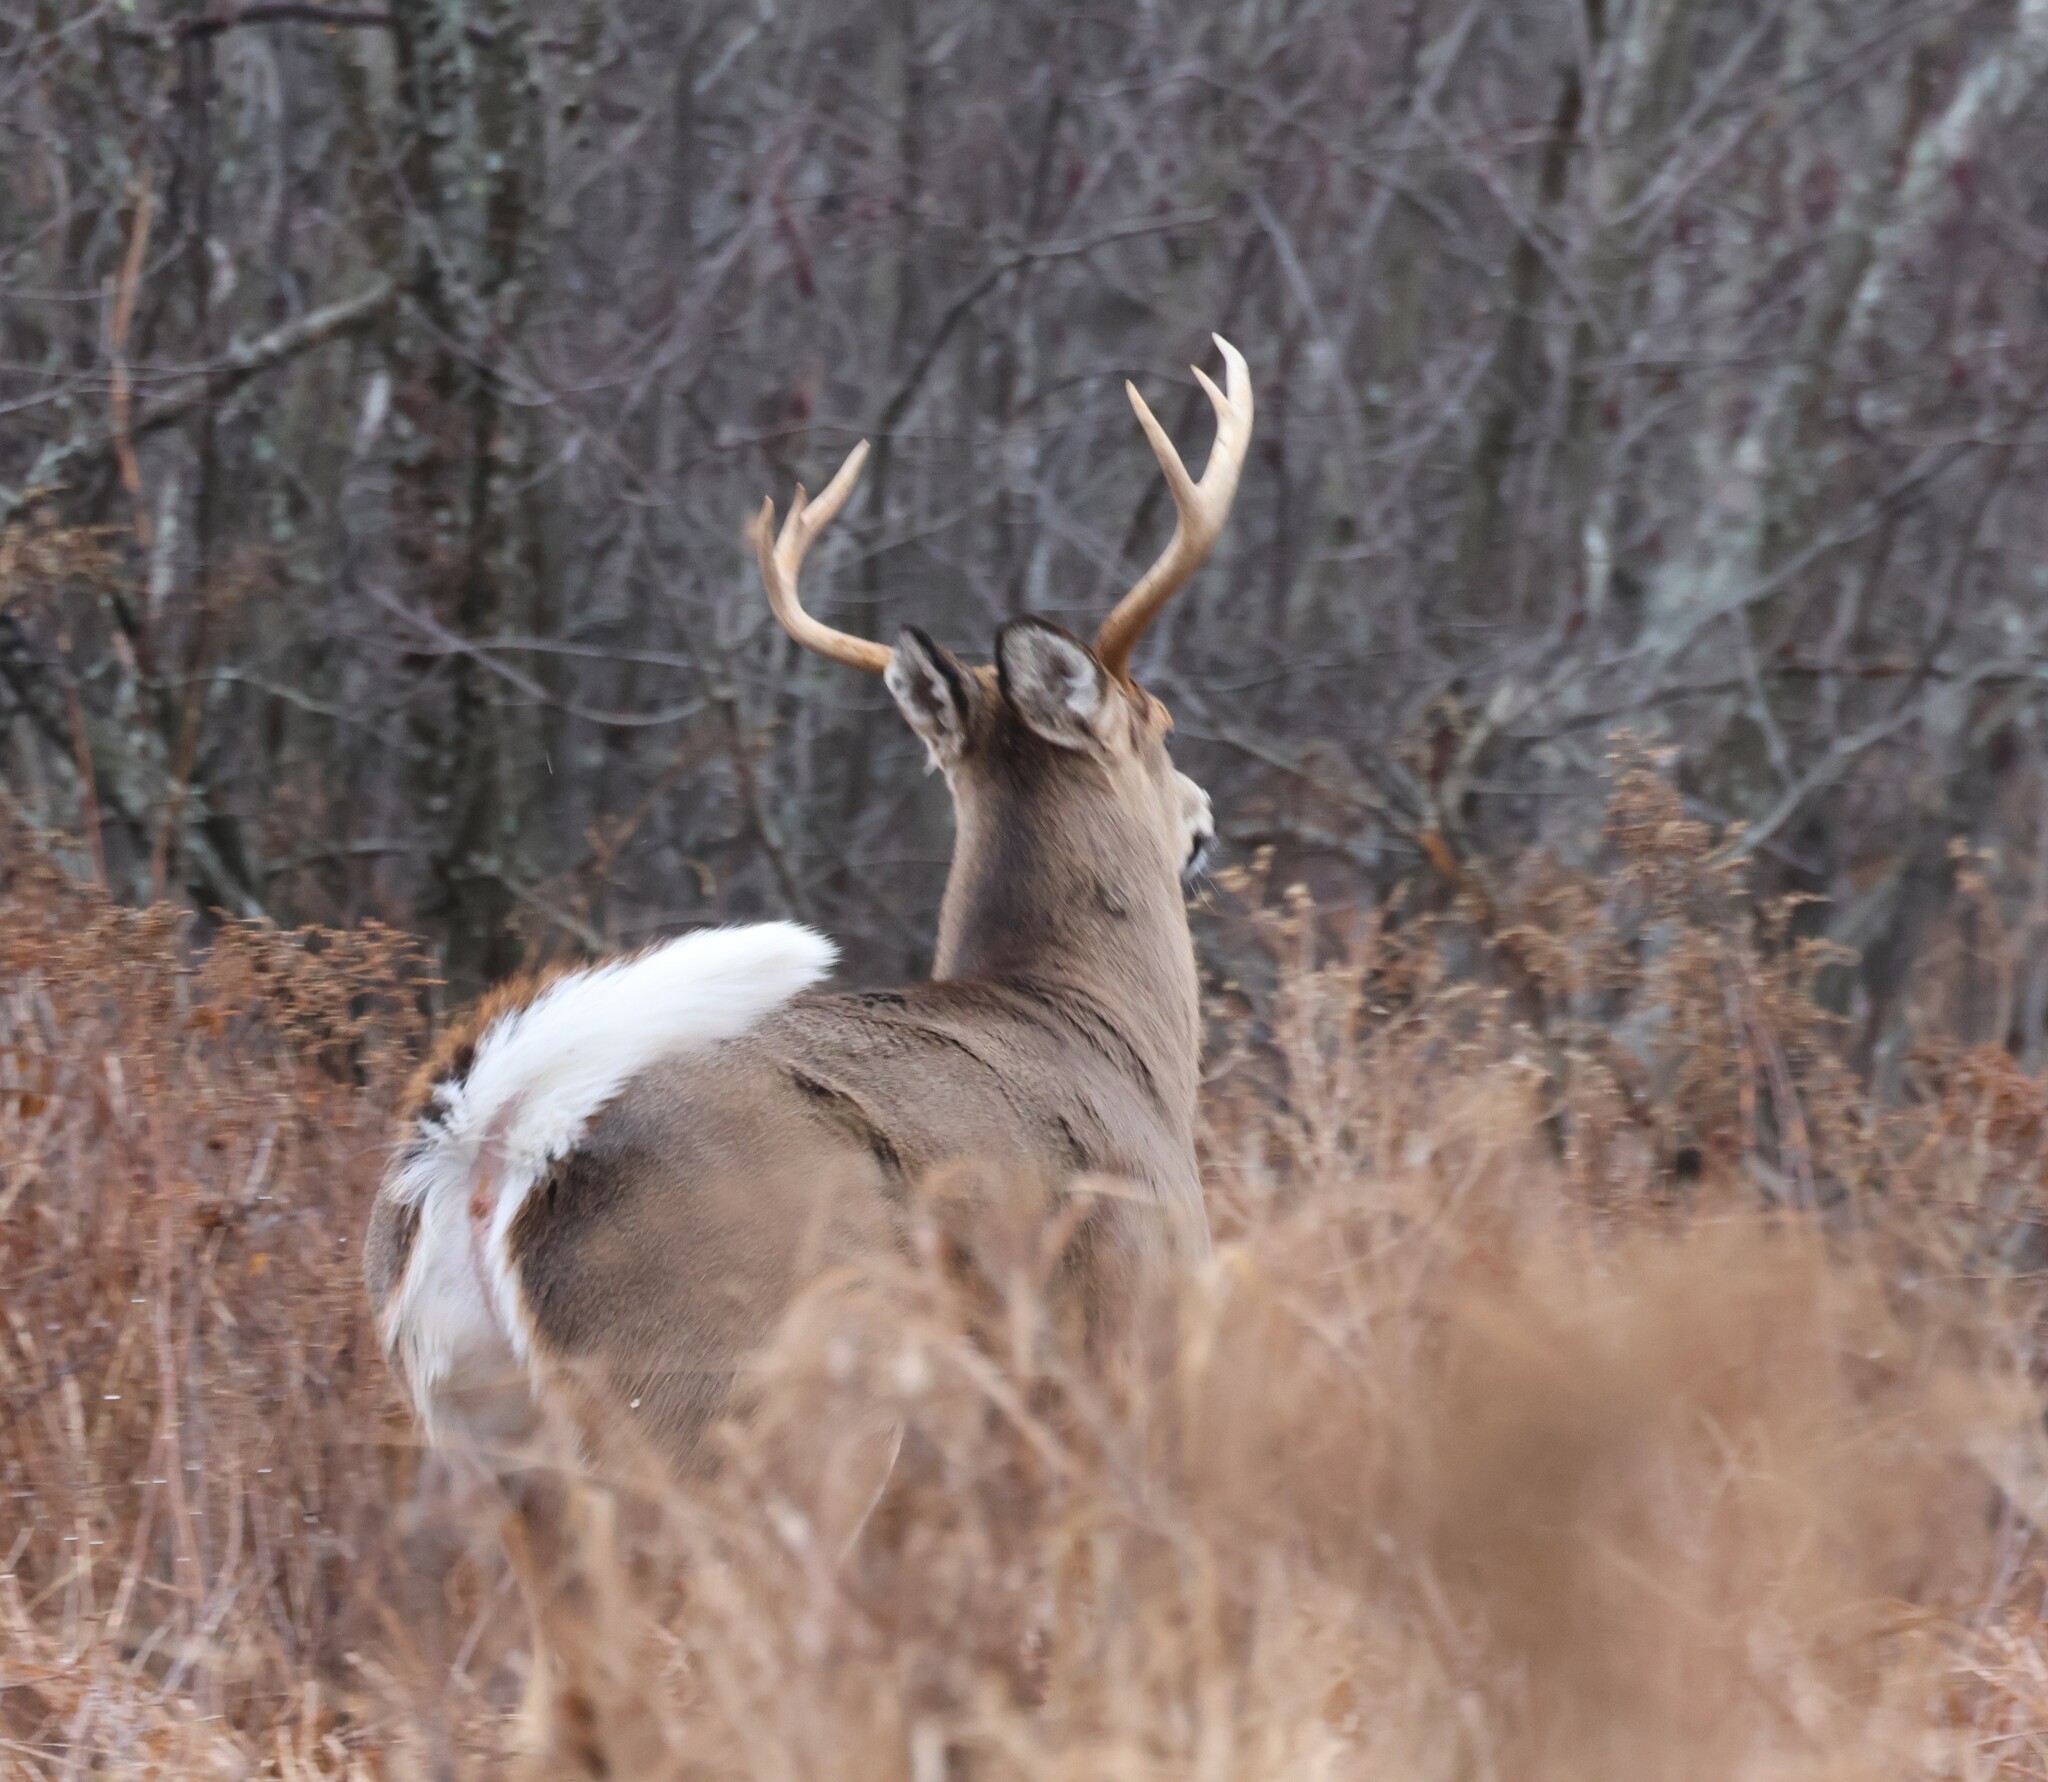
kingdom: Animalia
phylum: Chordata
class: Mammalia
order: Artiodactyla
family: Cervidae
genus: Odocoileus
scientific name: Odocoileus virginianus
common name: White-tailed deer
